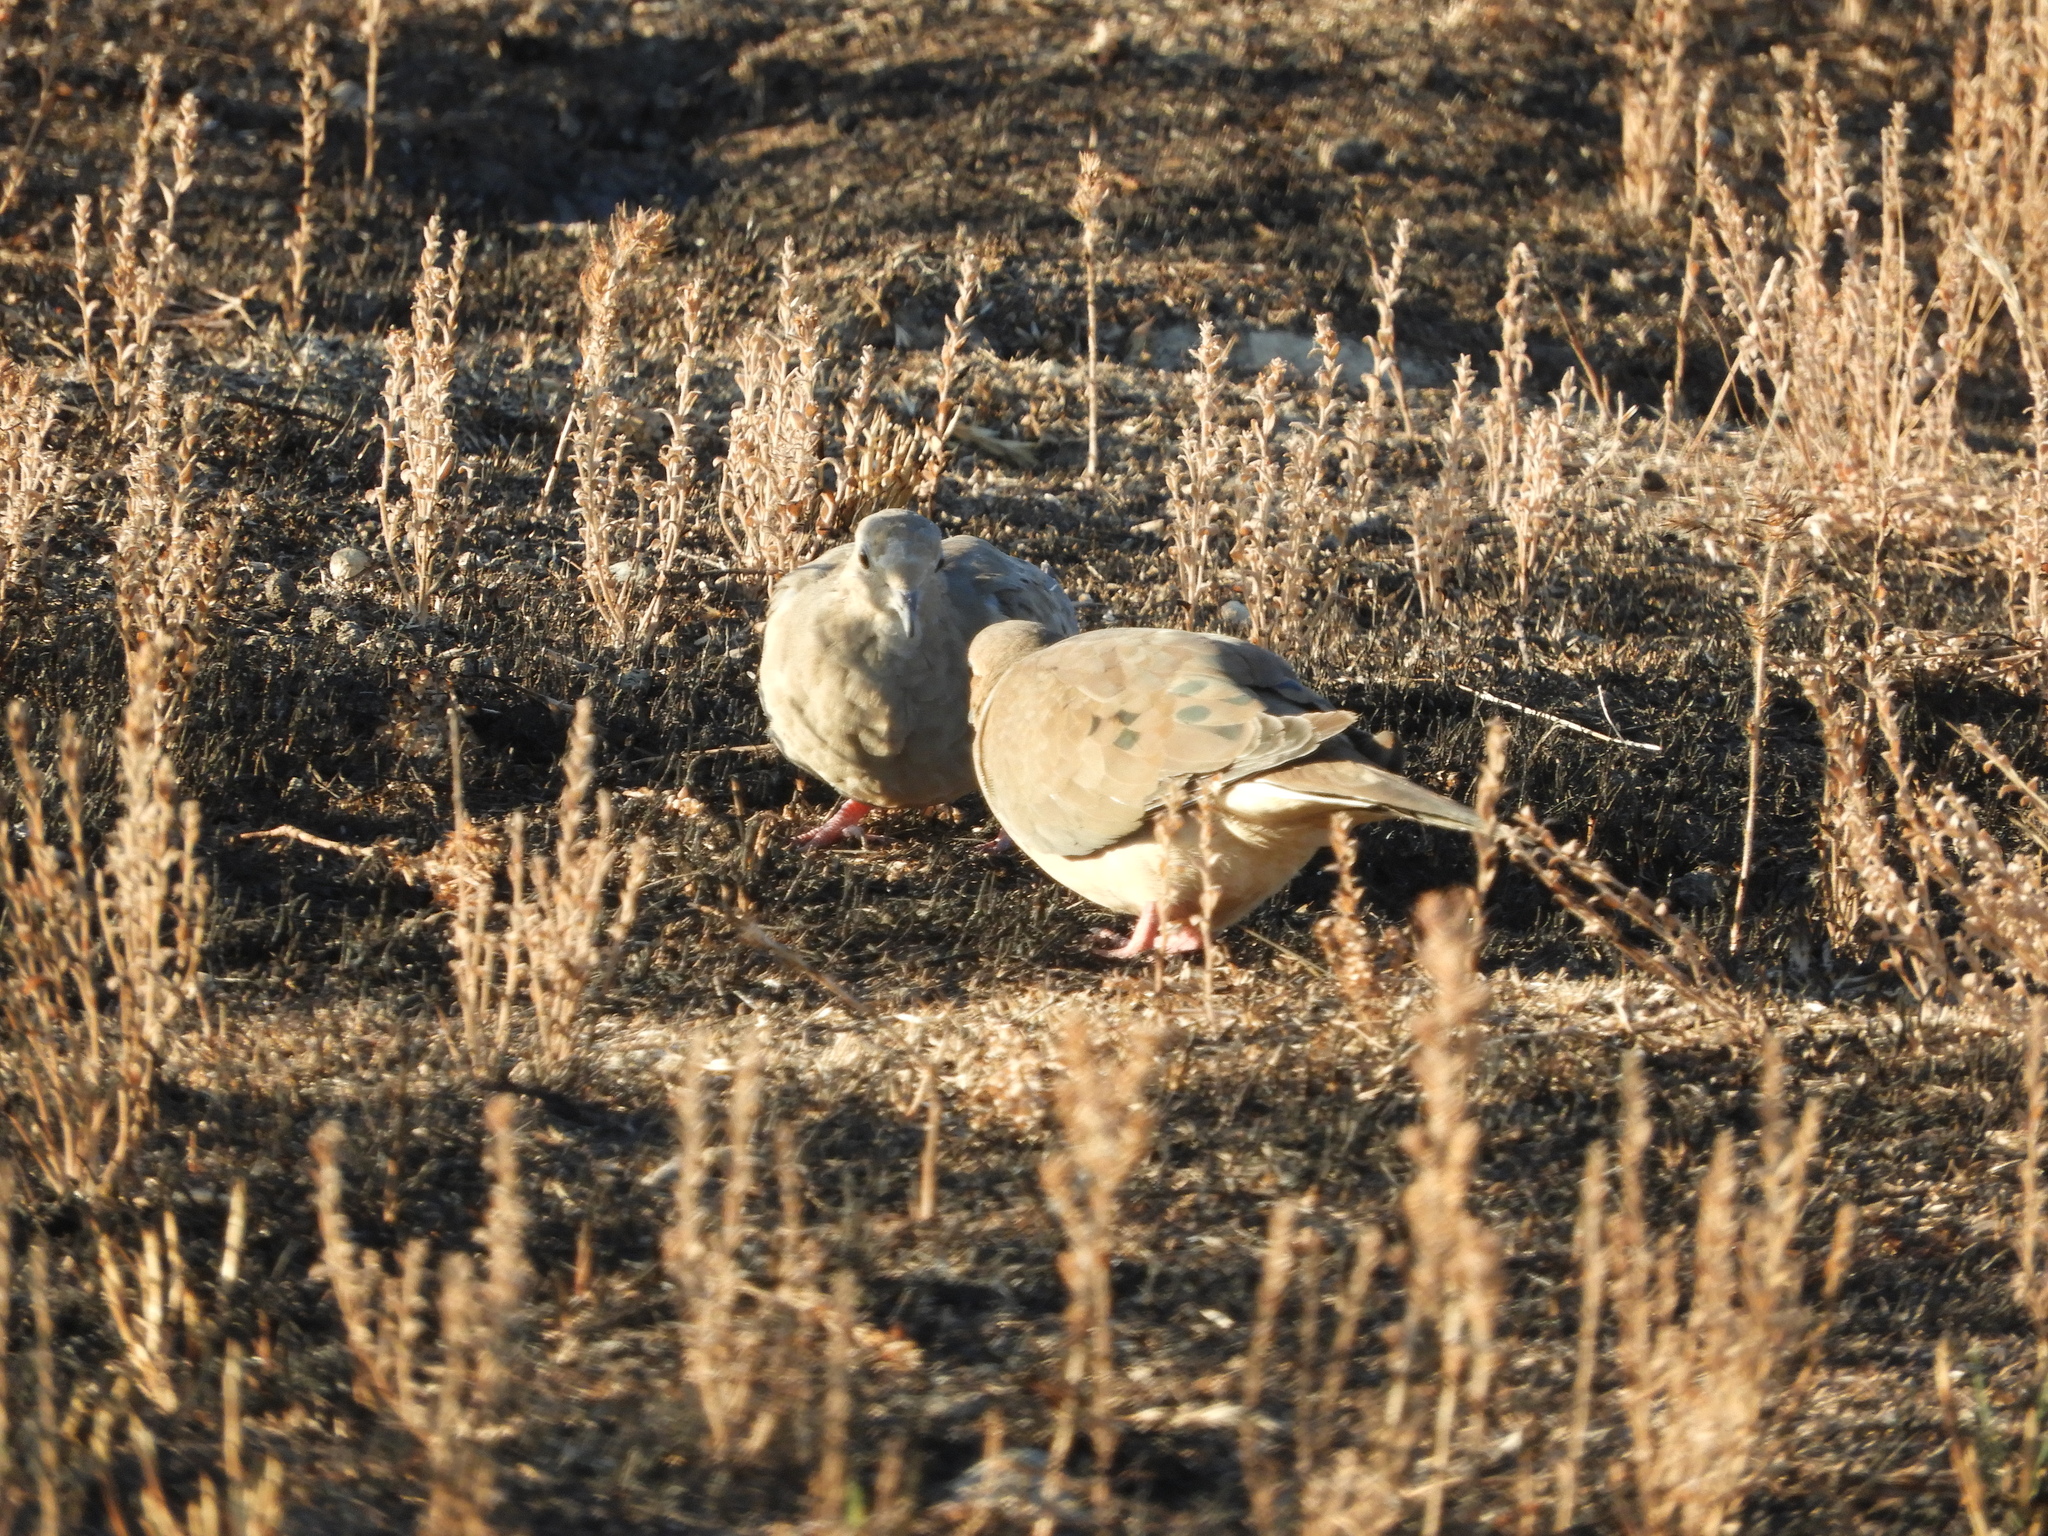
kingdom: Animalia
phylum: Chordata
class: Aves
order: Columbiformes
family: Columbidae
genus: Zenaida
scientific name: Zenaida macroura
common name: Mourning dove
